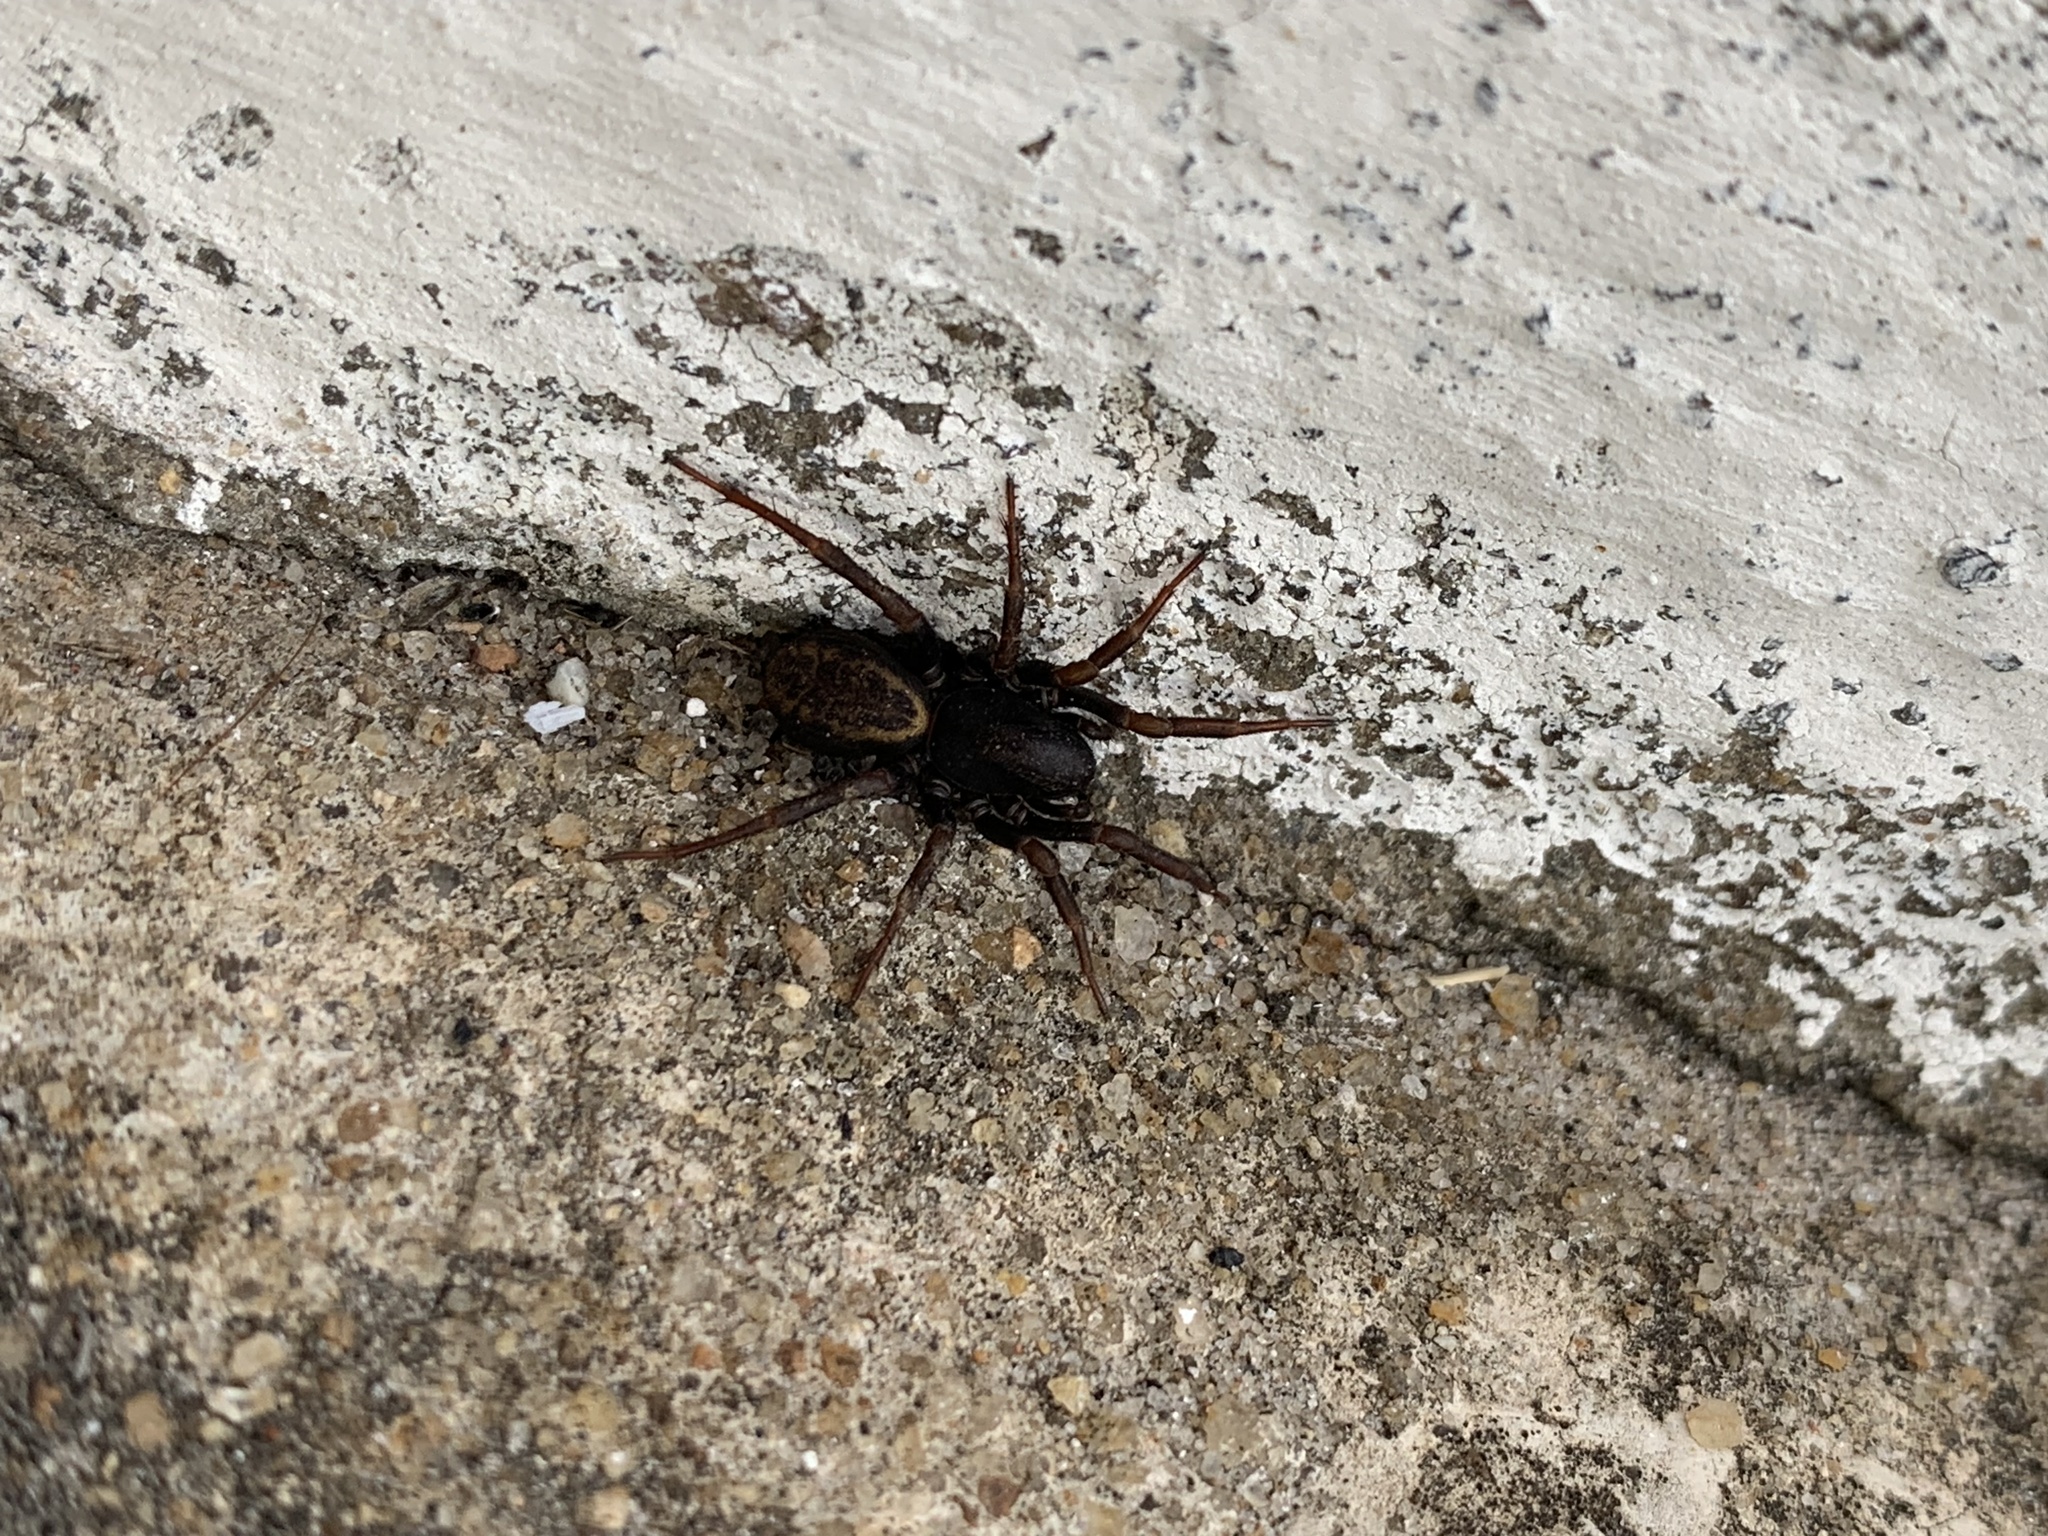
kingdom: Animalia
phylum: Arthropoda
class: Arachnida
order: Araneae
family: Zodariidae
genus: Cybaeodamus
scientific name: Cybaeodamus meridionalis
